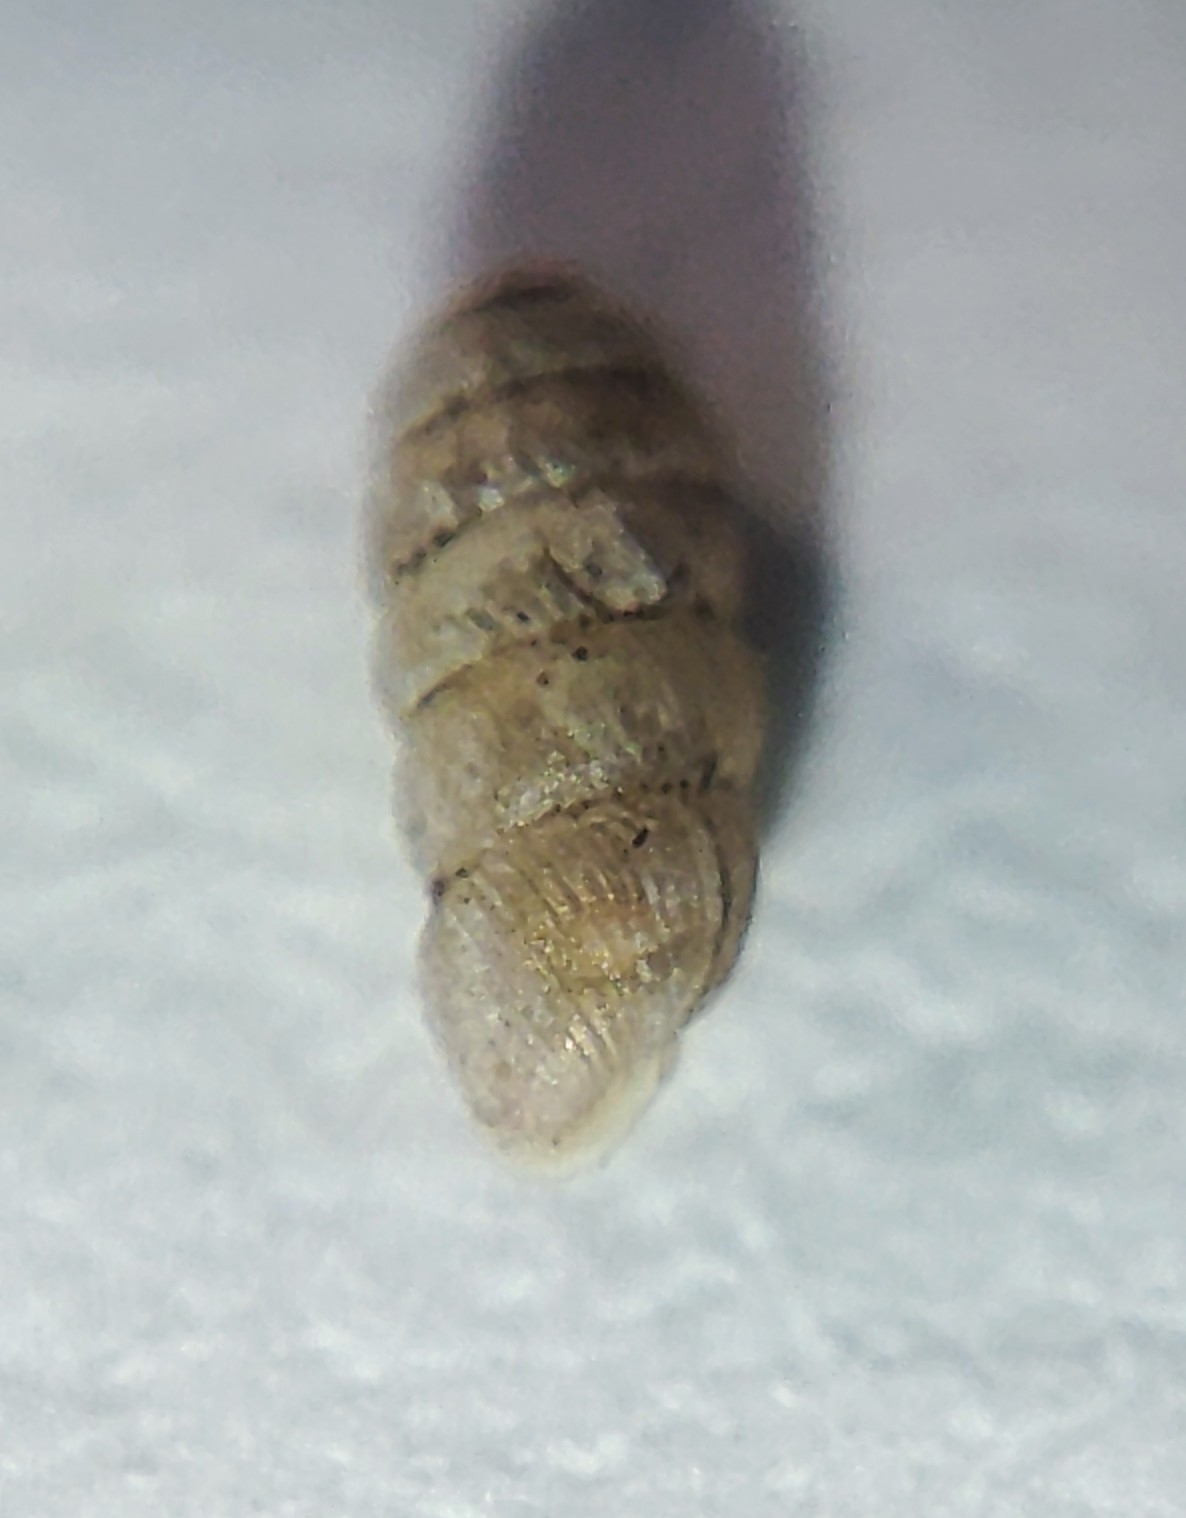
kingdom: Animalia
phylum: Mollusca
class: Gastropoda
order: Stylommatophora
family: Truncatellinidae
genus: Truncatellina
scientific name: Truncatellina claustralis
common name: Tiny whorl snail
